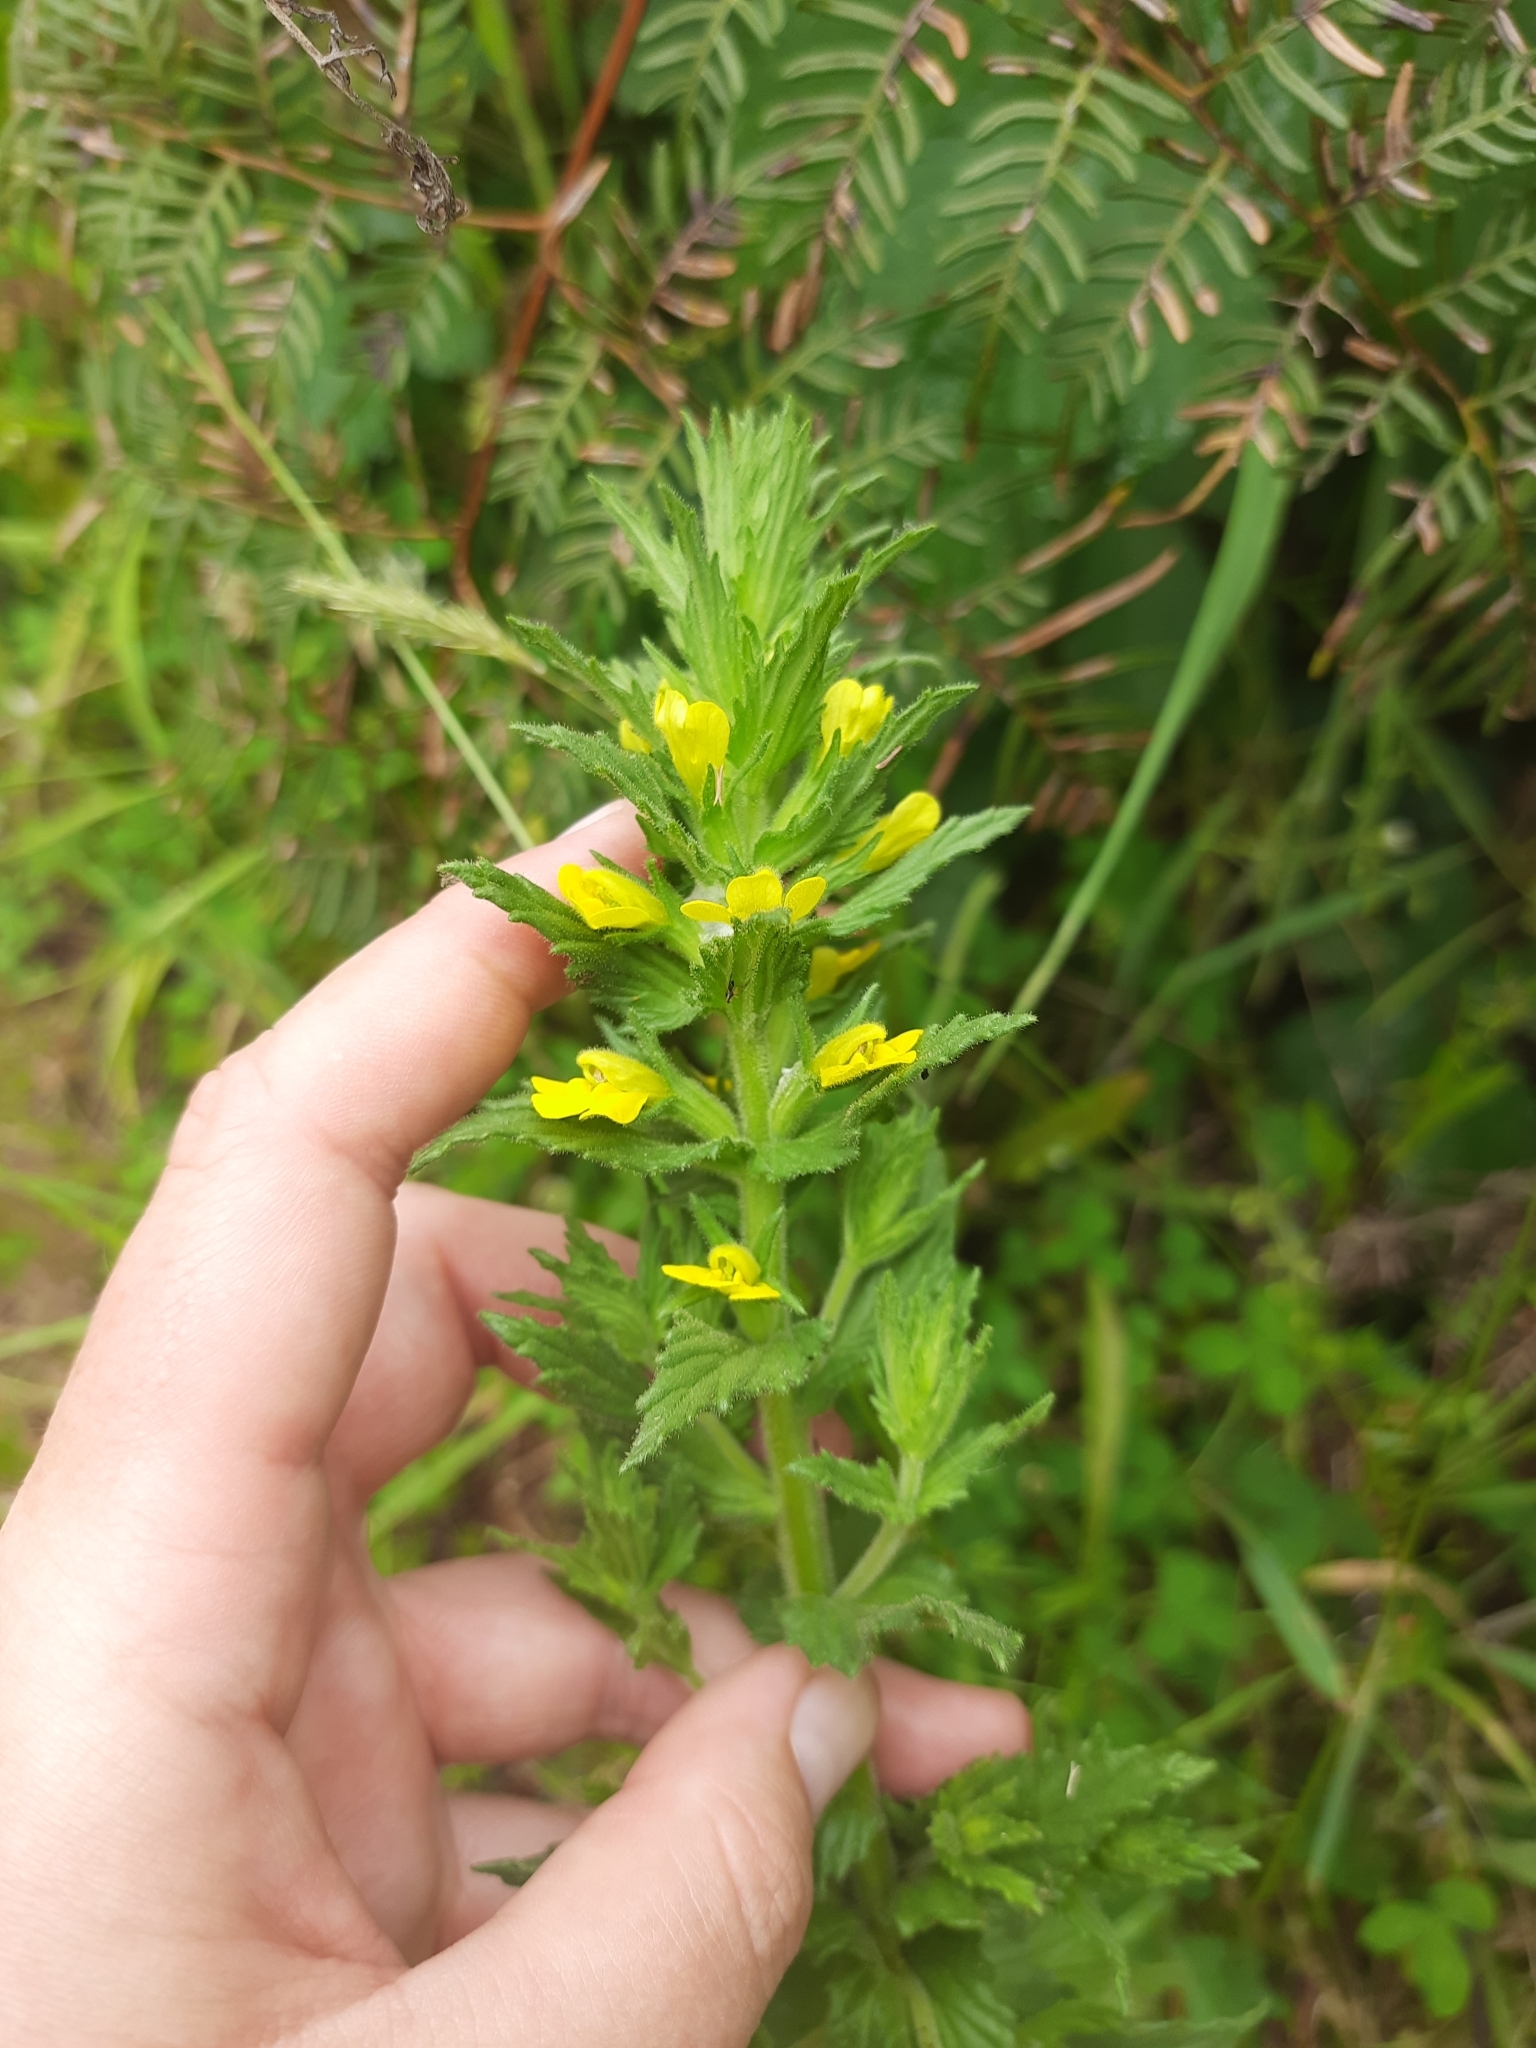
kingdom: Plantae
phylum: Tracheophyta
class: Magnoliopsida
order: Lamiales
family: Orobanchaceae
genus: Bellardia
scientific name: Bellardia viscosa
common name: Sticky parentucellia
